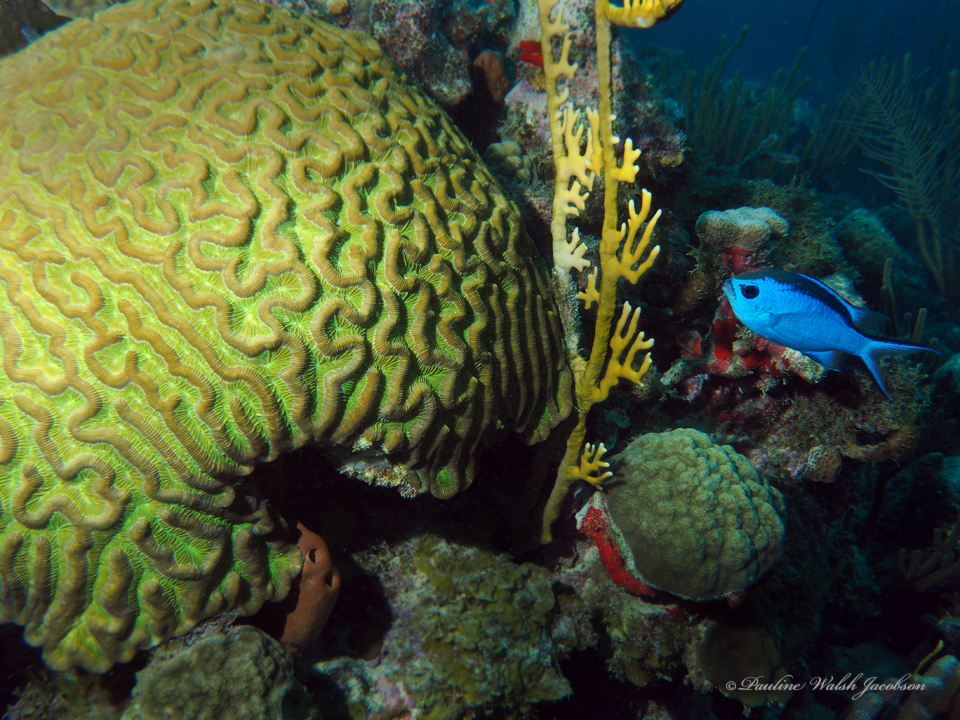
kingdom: Animalia
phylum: Chordata
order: Perciformes
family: Pomacentridae
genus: Chromis
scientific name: Chromis cyanea
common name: Blue chromis
